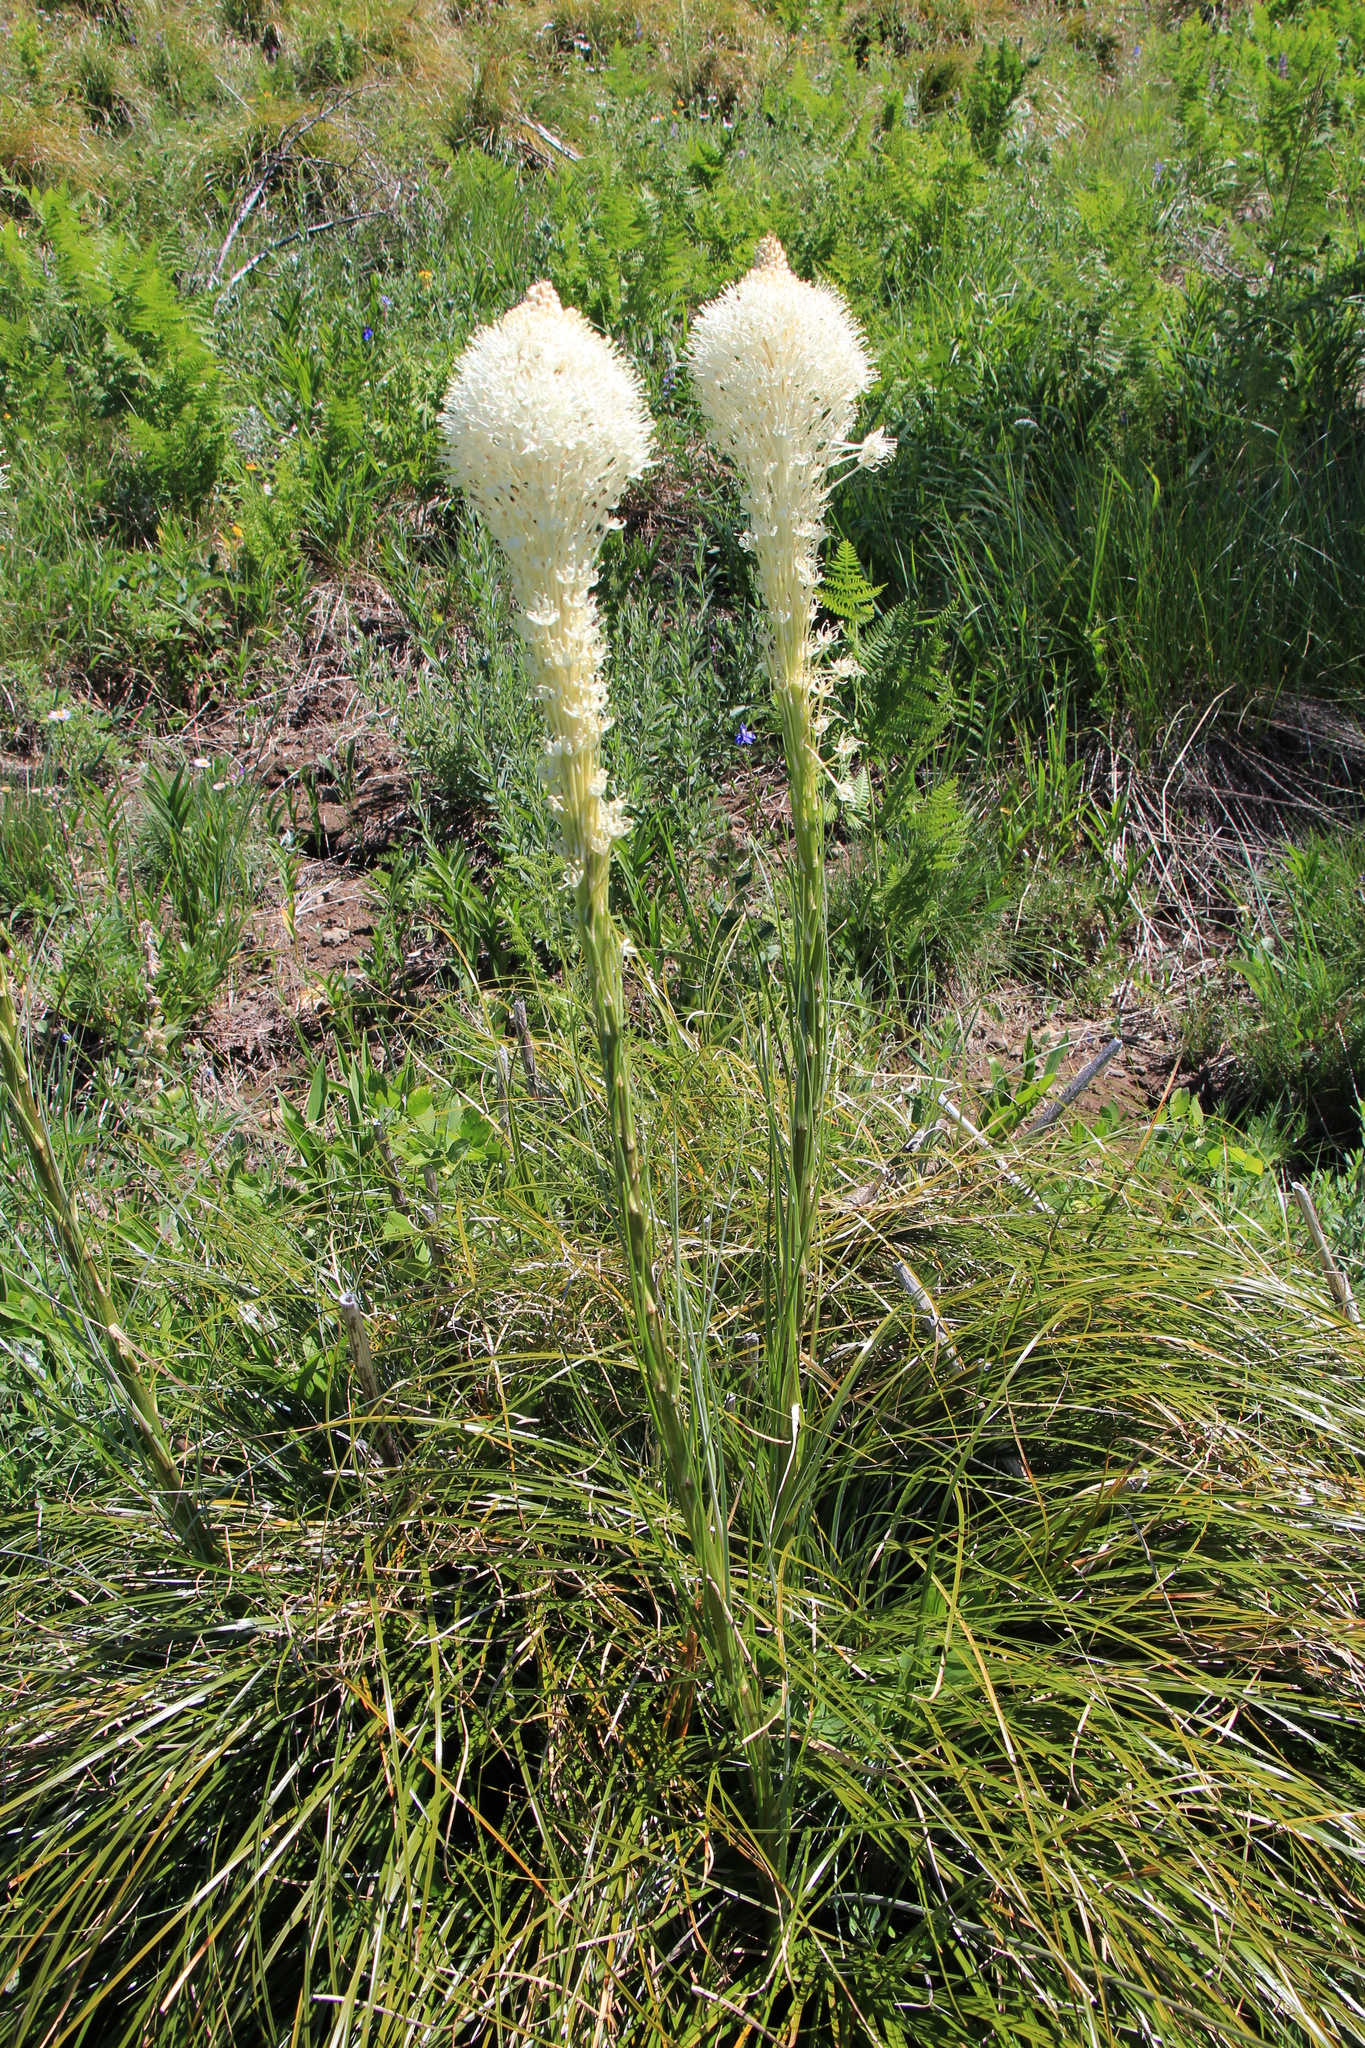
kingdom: Plantae
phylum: Tracheophyta
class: Liliopsida
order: Liliales
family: Melanthiaceae
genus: Xerophyllum
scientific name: Xerophyllum tenax
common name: Bear-grass
